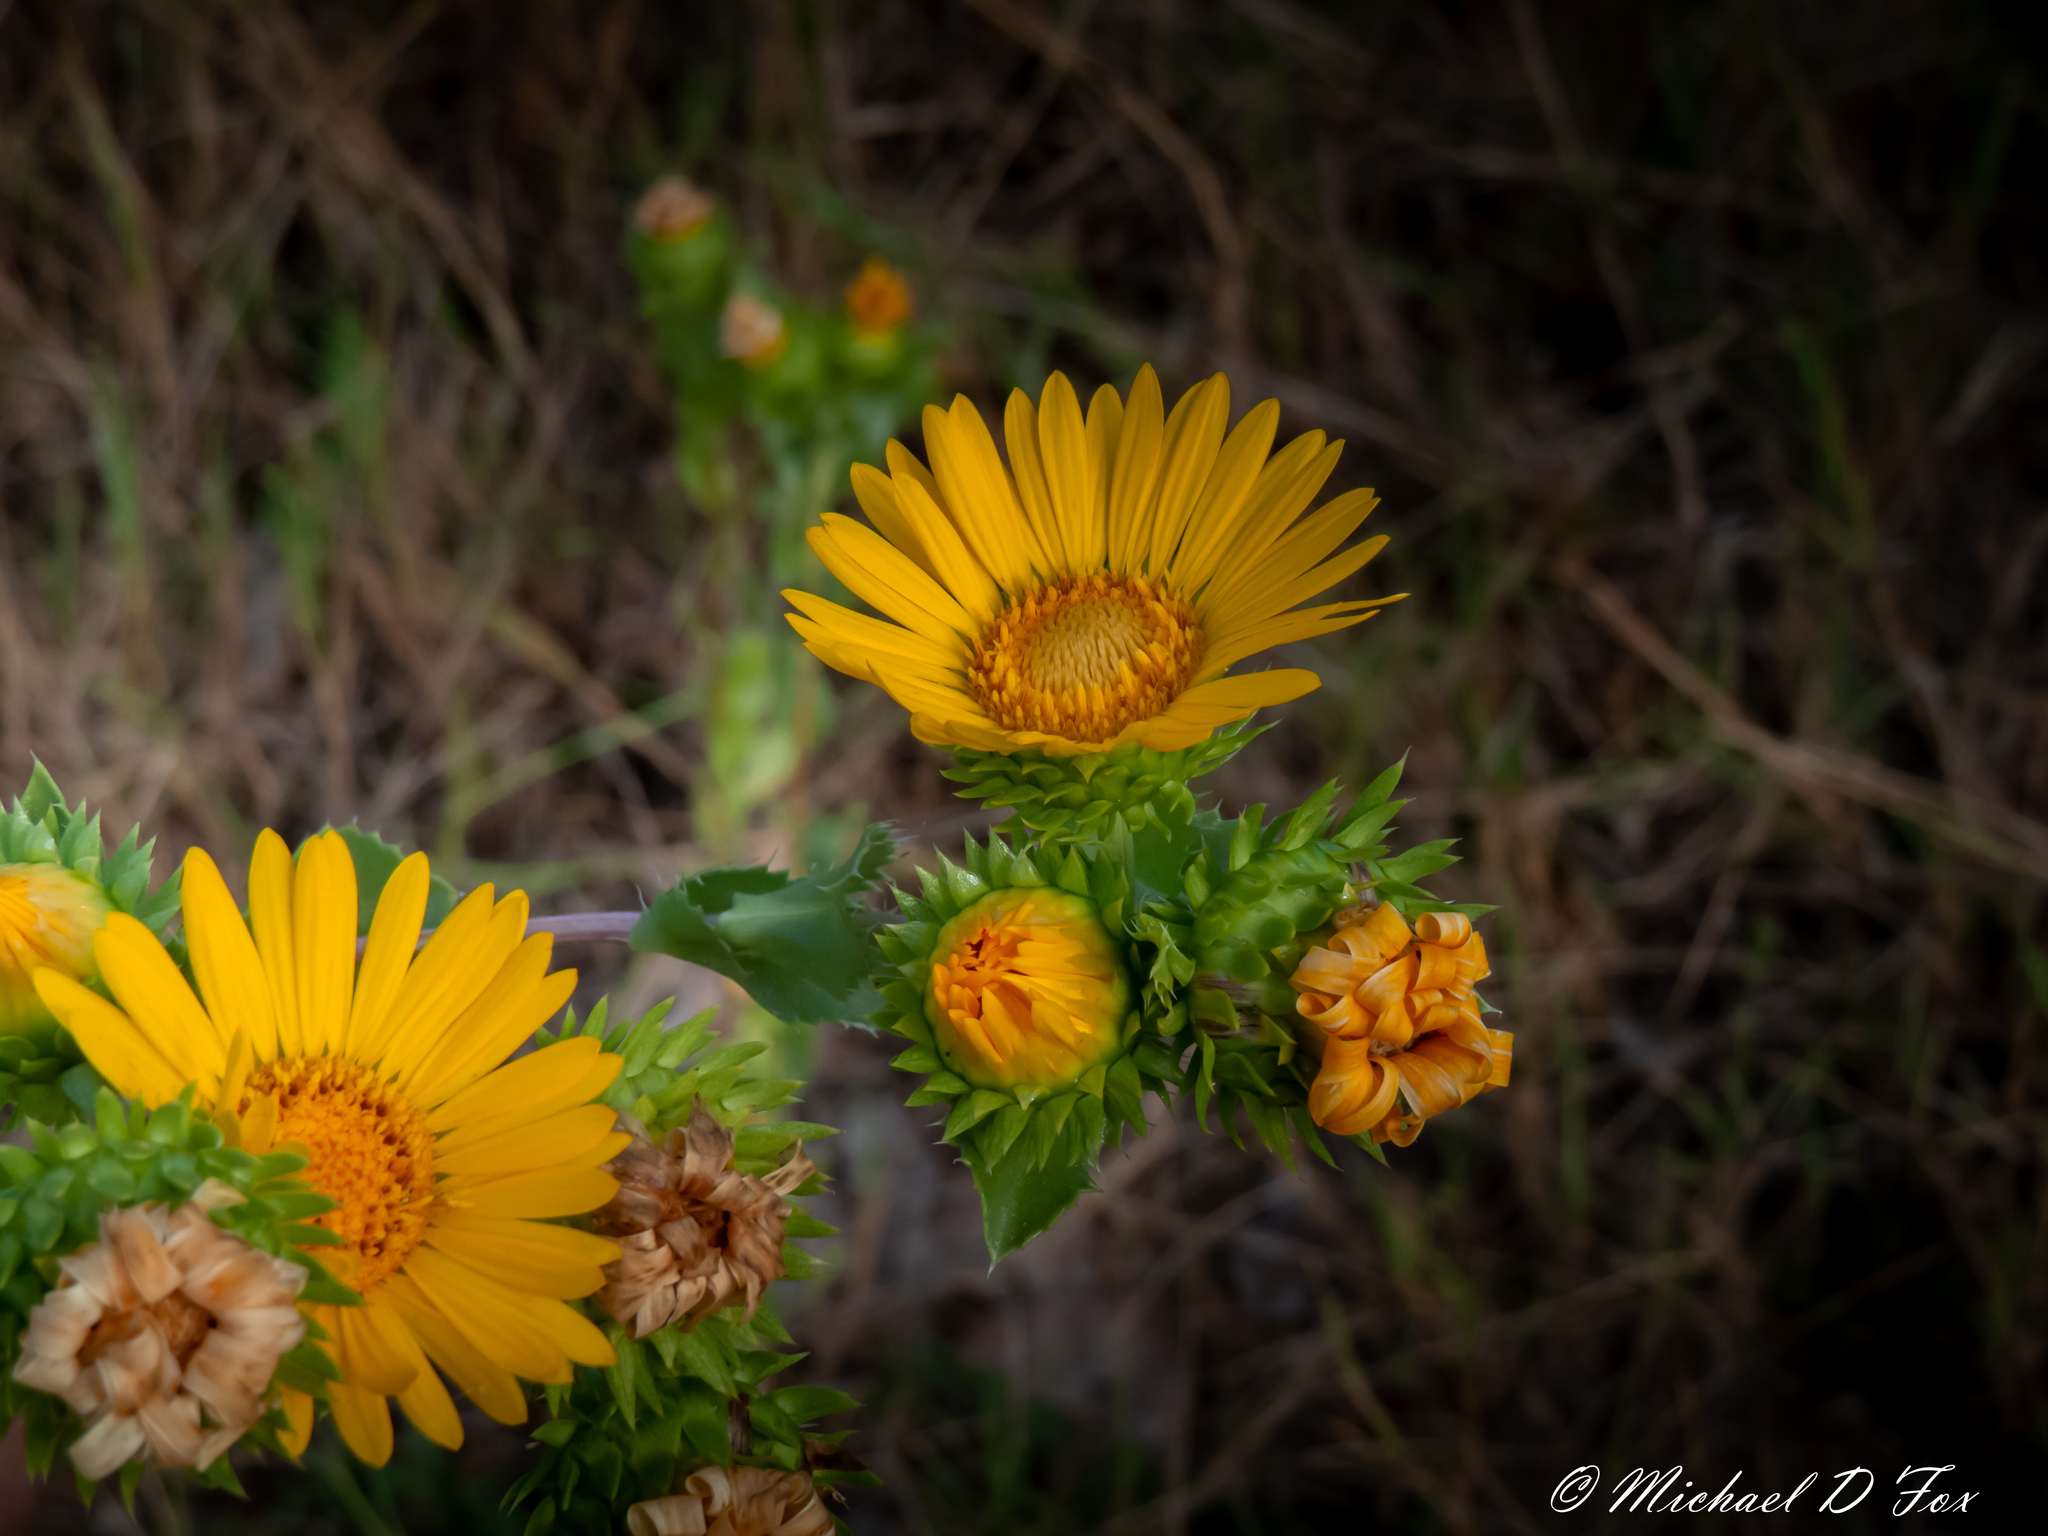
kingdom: Plantae
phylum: Tracheophyta
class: Magnoliopsida
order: Asterales
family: Asteraceae
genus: Grindelia
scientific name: Grindelia ciliata
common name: Goldenweed
